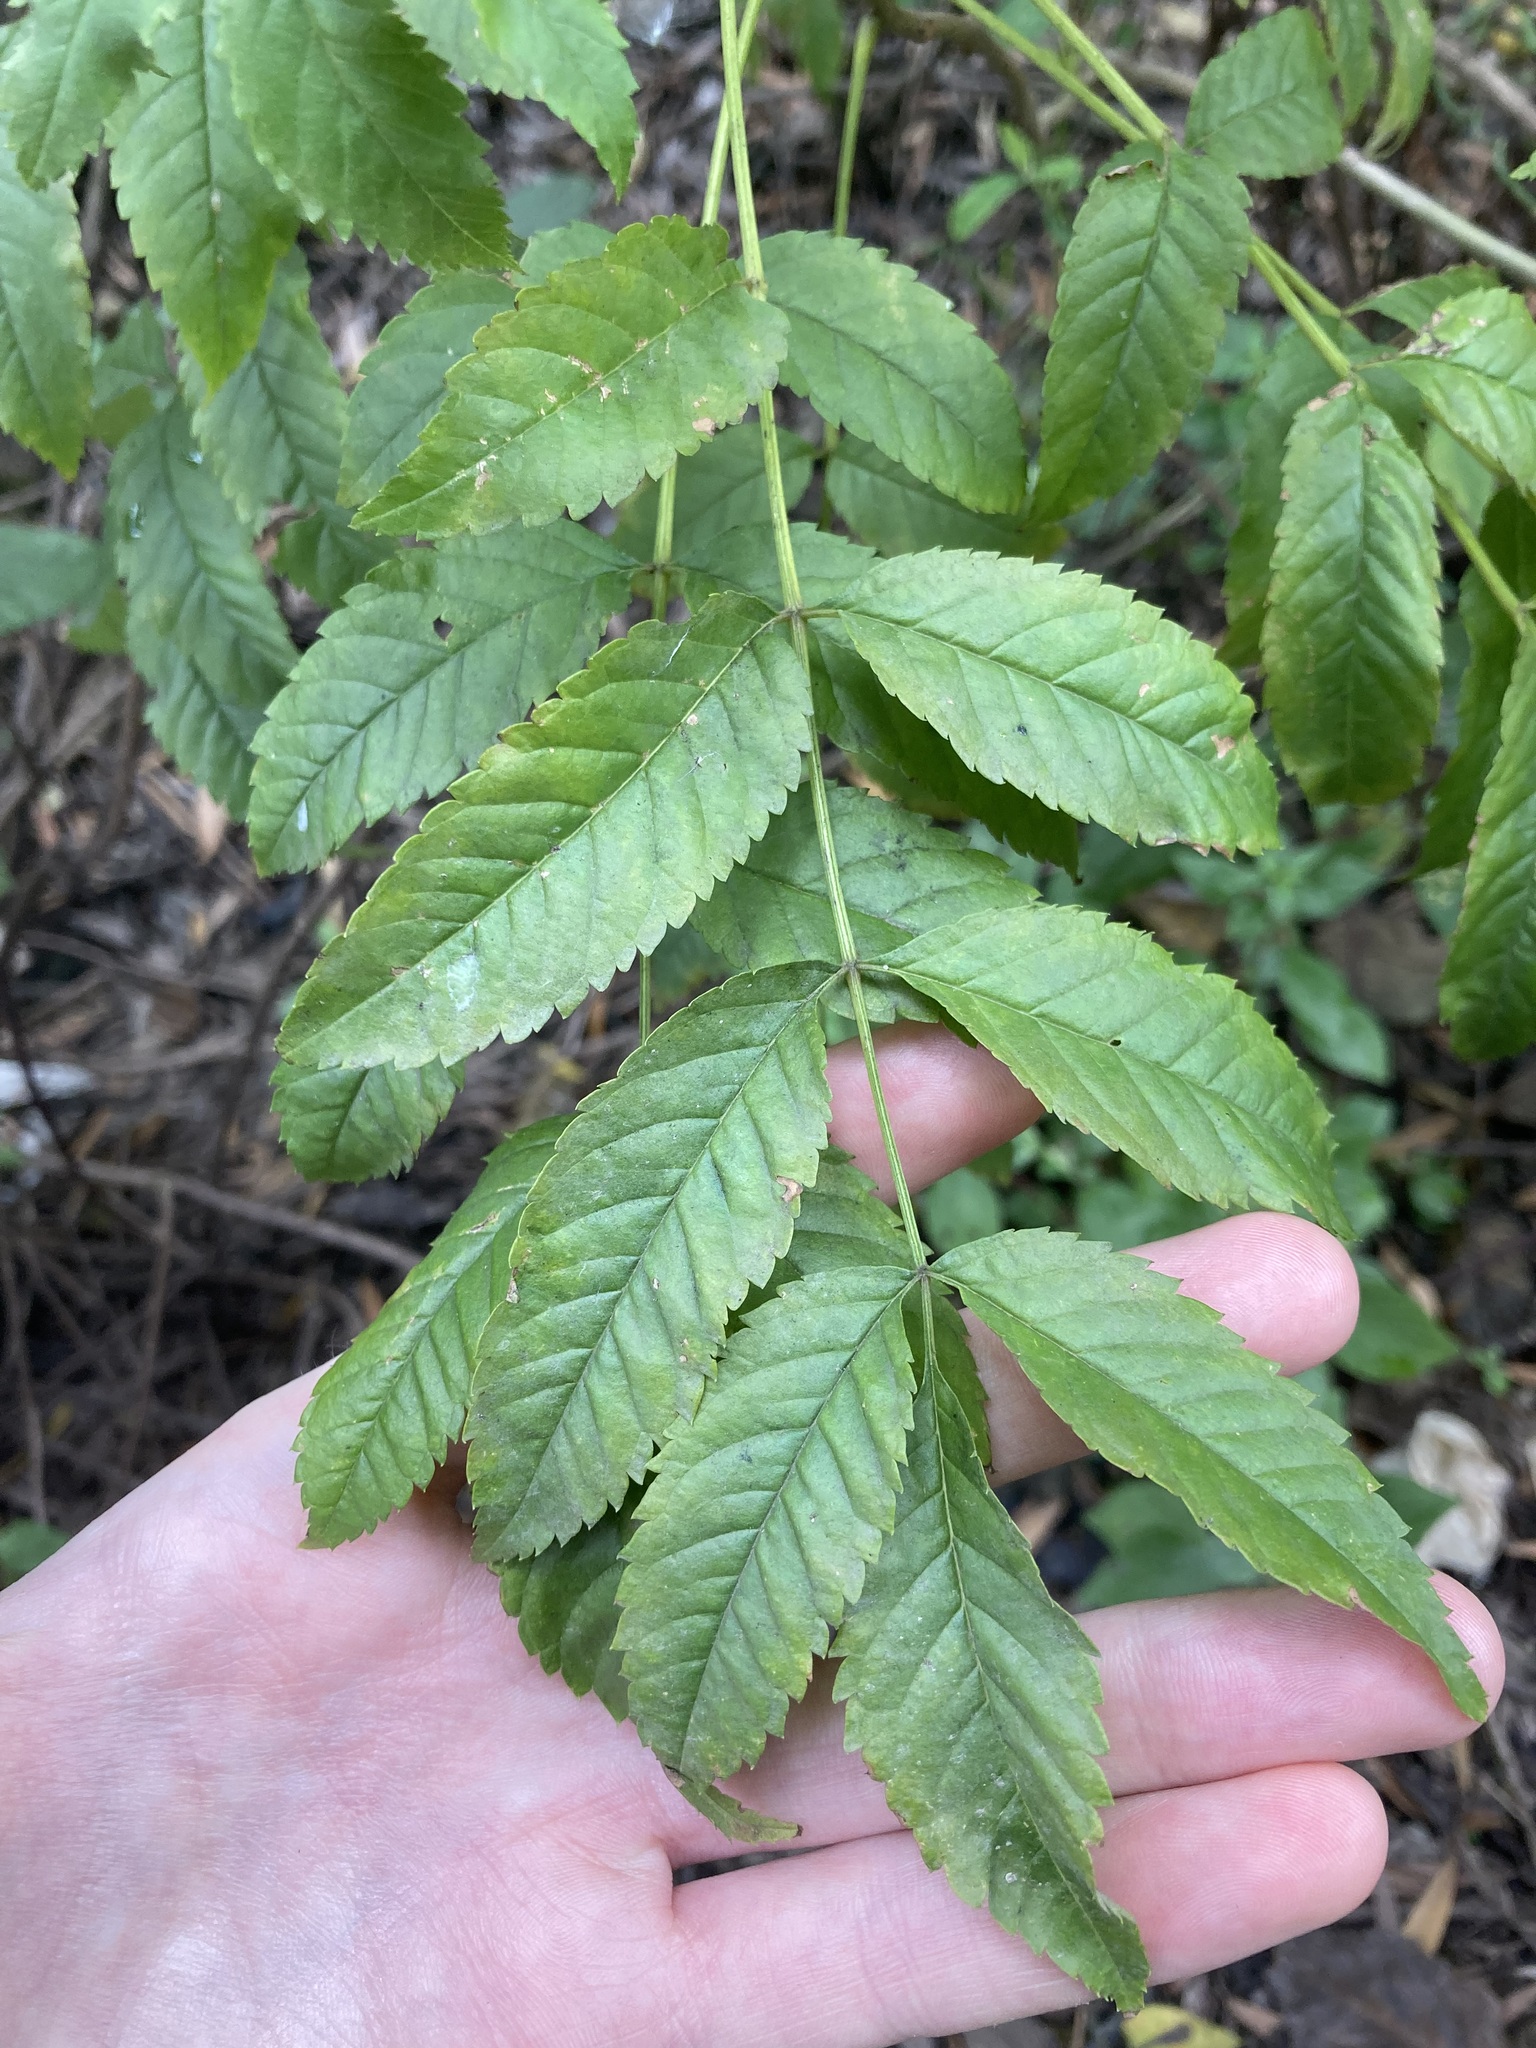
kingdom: Plantae
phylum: Tracheophyta
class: Magnoliopsida
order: Lamiales
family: Bignoniaceae
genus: Tecoma
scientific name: Tecoma stans
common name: Yellow trumpetbush
